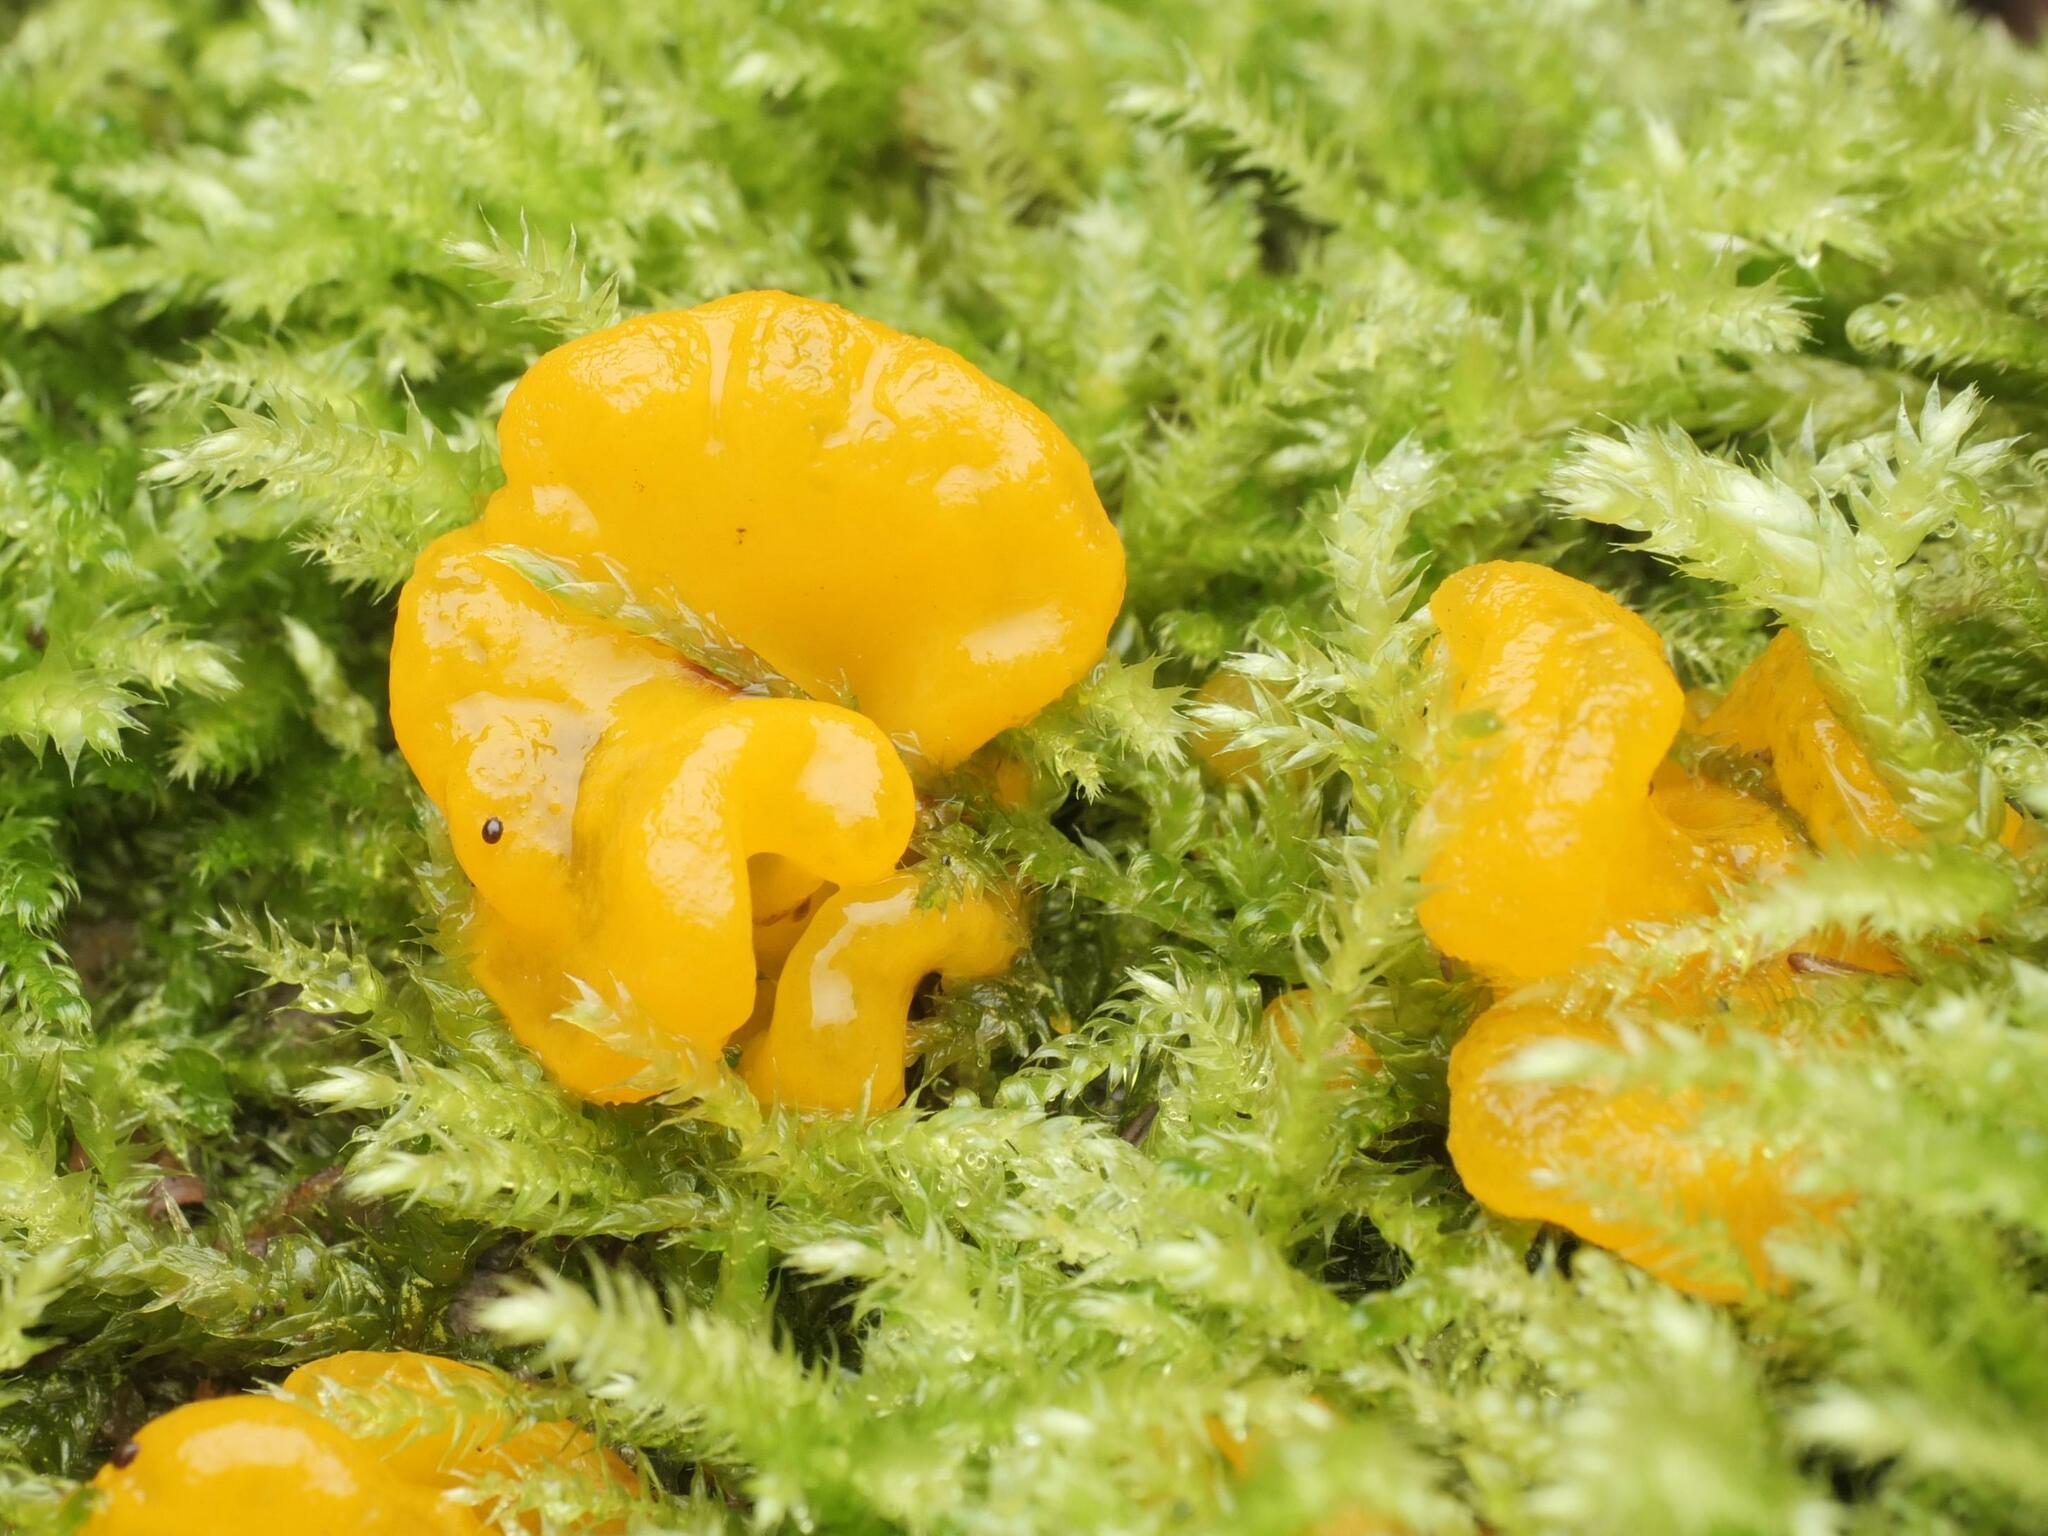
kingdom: Fungi
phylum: Basidiomycota
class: Tremellomycetes
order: Tremellales
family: Tremellaceae
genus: Tremella
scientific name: Tremella mesenterica
